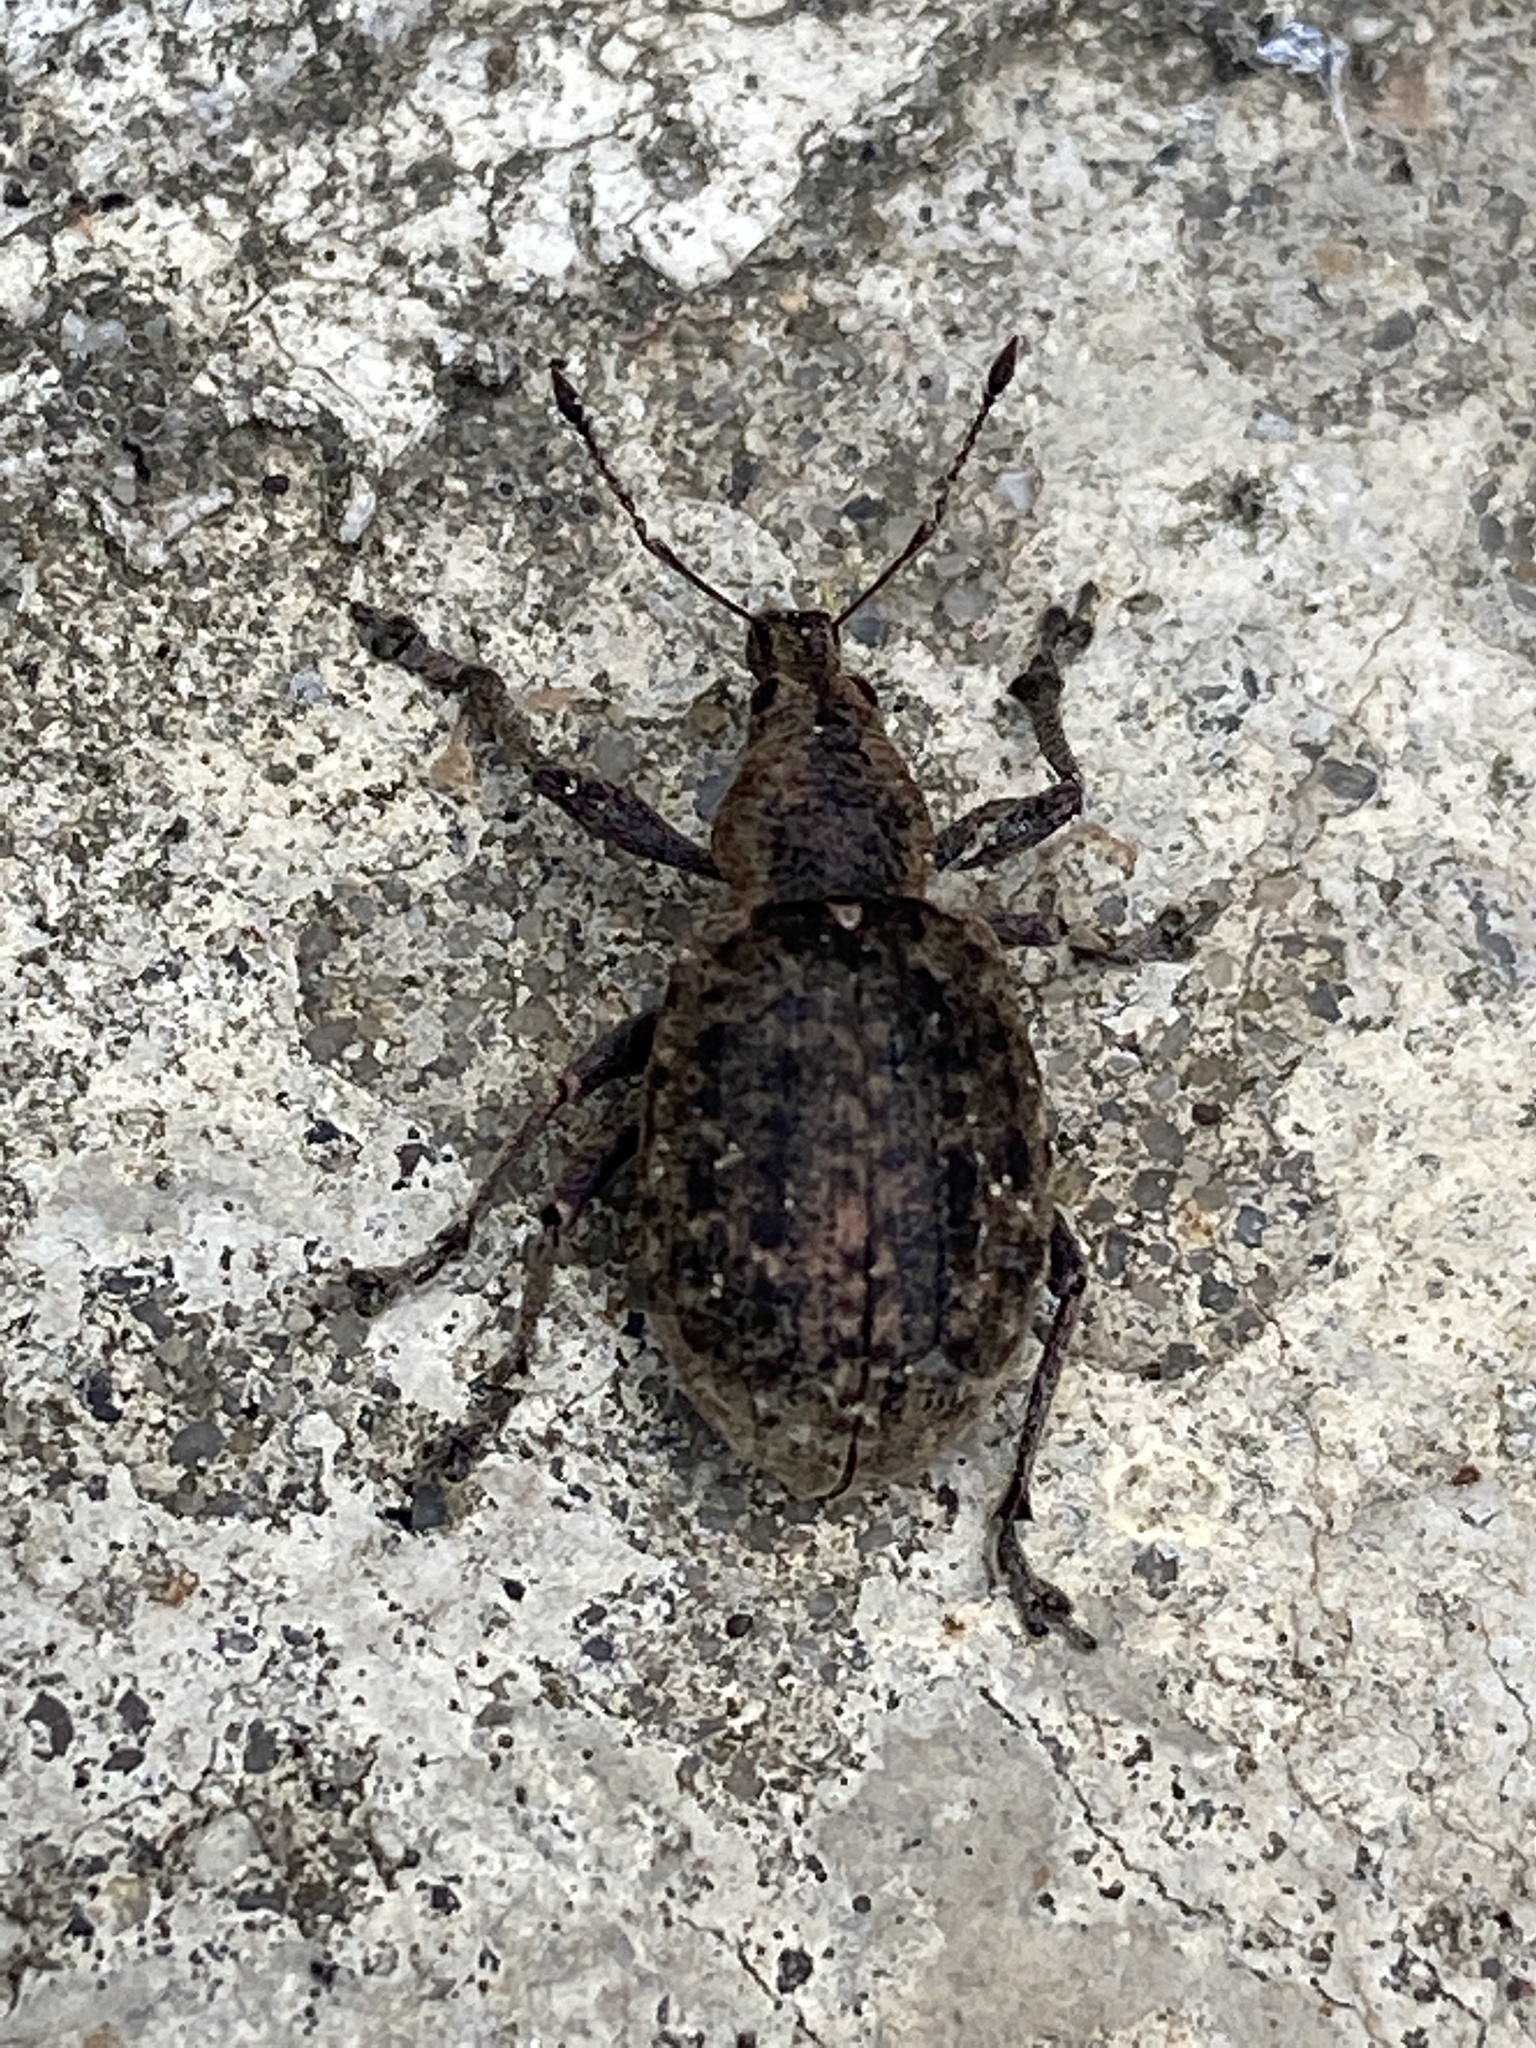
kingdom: Animalia
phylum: Arthropoda
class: Insecta
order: Coleoptera
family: Curculionidae
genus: Liophloeus
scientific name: Liophloeus tessulatus
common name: Weevil
